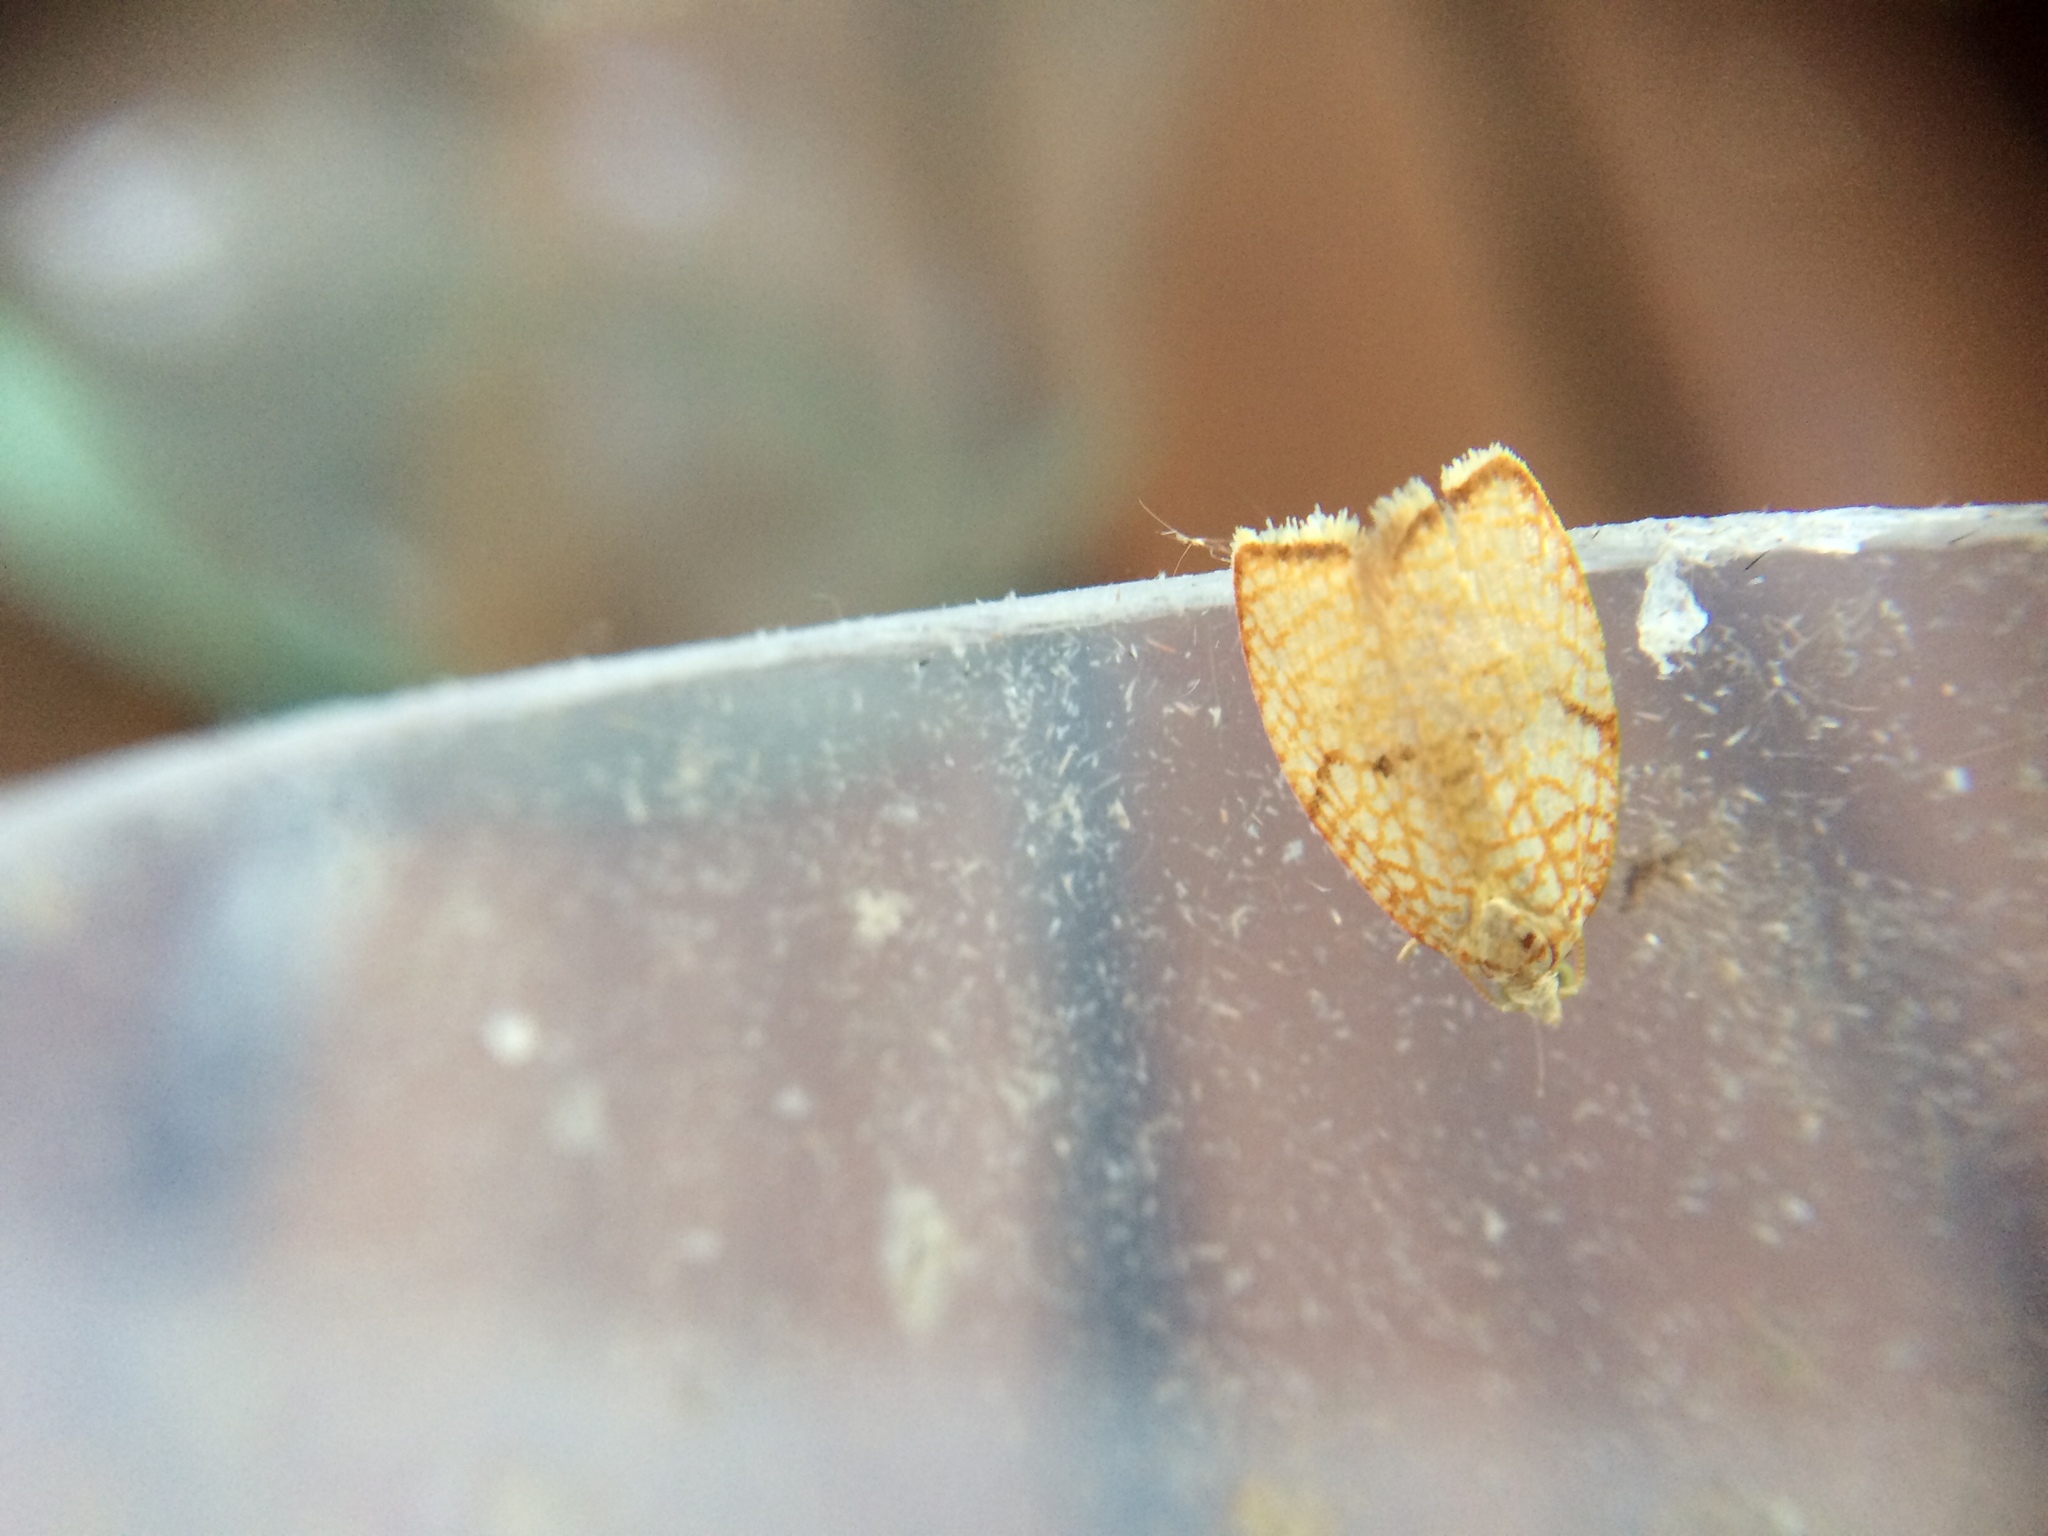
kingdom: Animalia
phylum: Arthropoda
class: Insecta
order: Lepidoptera
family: Tortricidae
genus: Acleris
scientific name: Acleris forsskaleana
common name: Maple button
